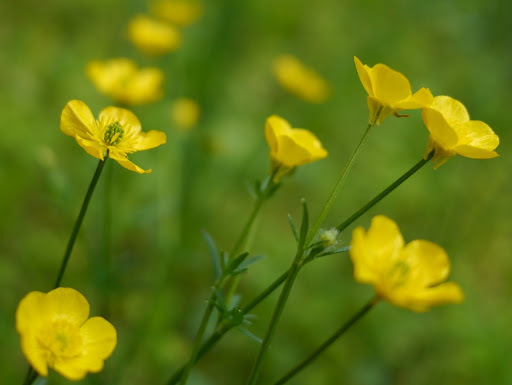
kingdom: Plantae
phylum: Tracheophyta
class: Magnoliopsida
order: Ranunculales
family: Ranunculaceae
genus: Ranunculus
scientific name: Ranunculus bulbosus
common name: Bulbous buttercup
